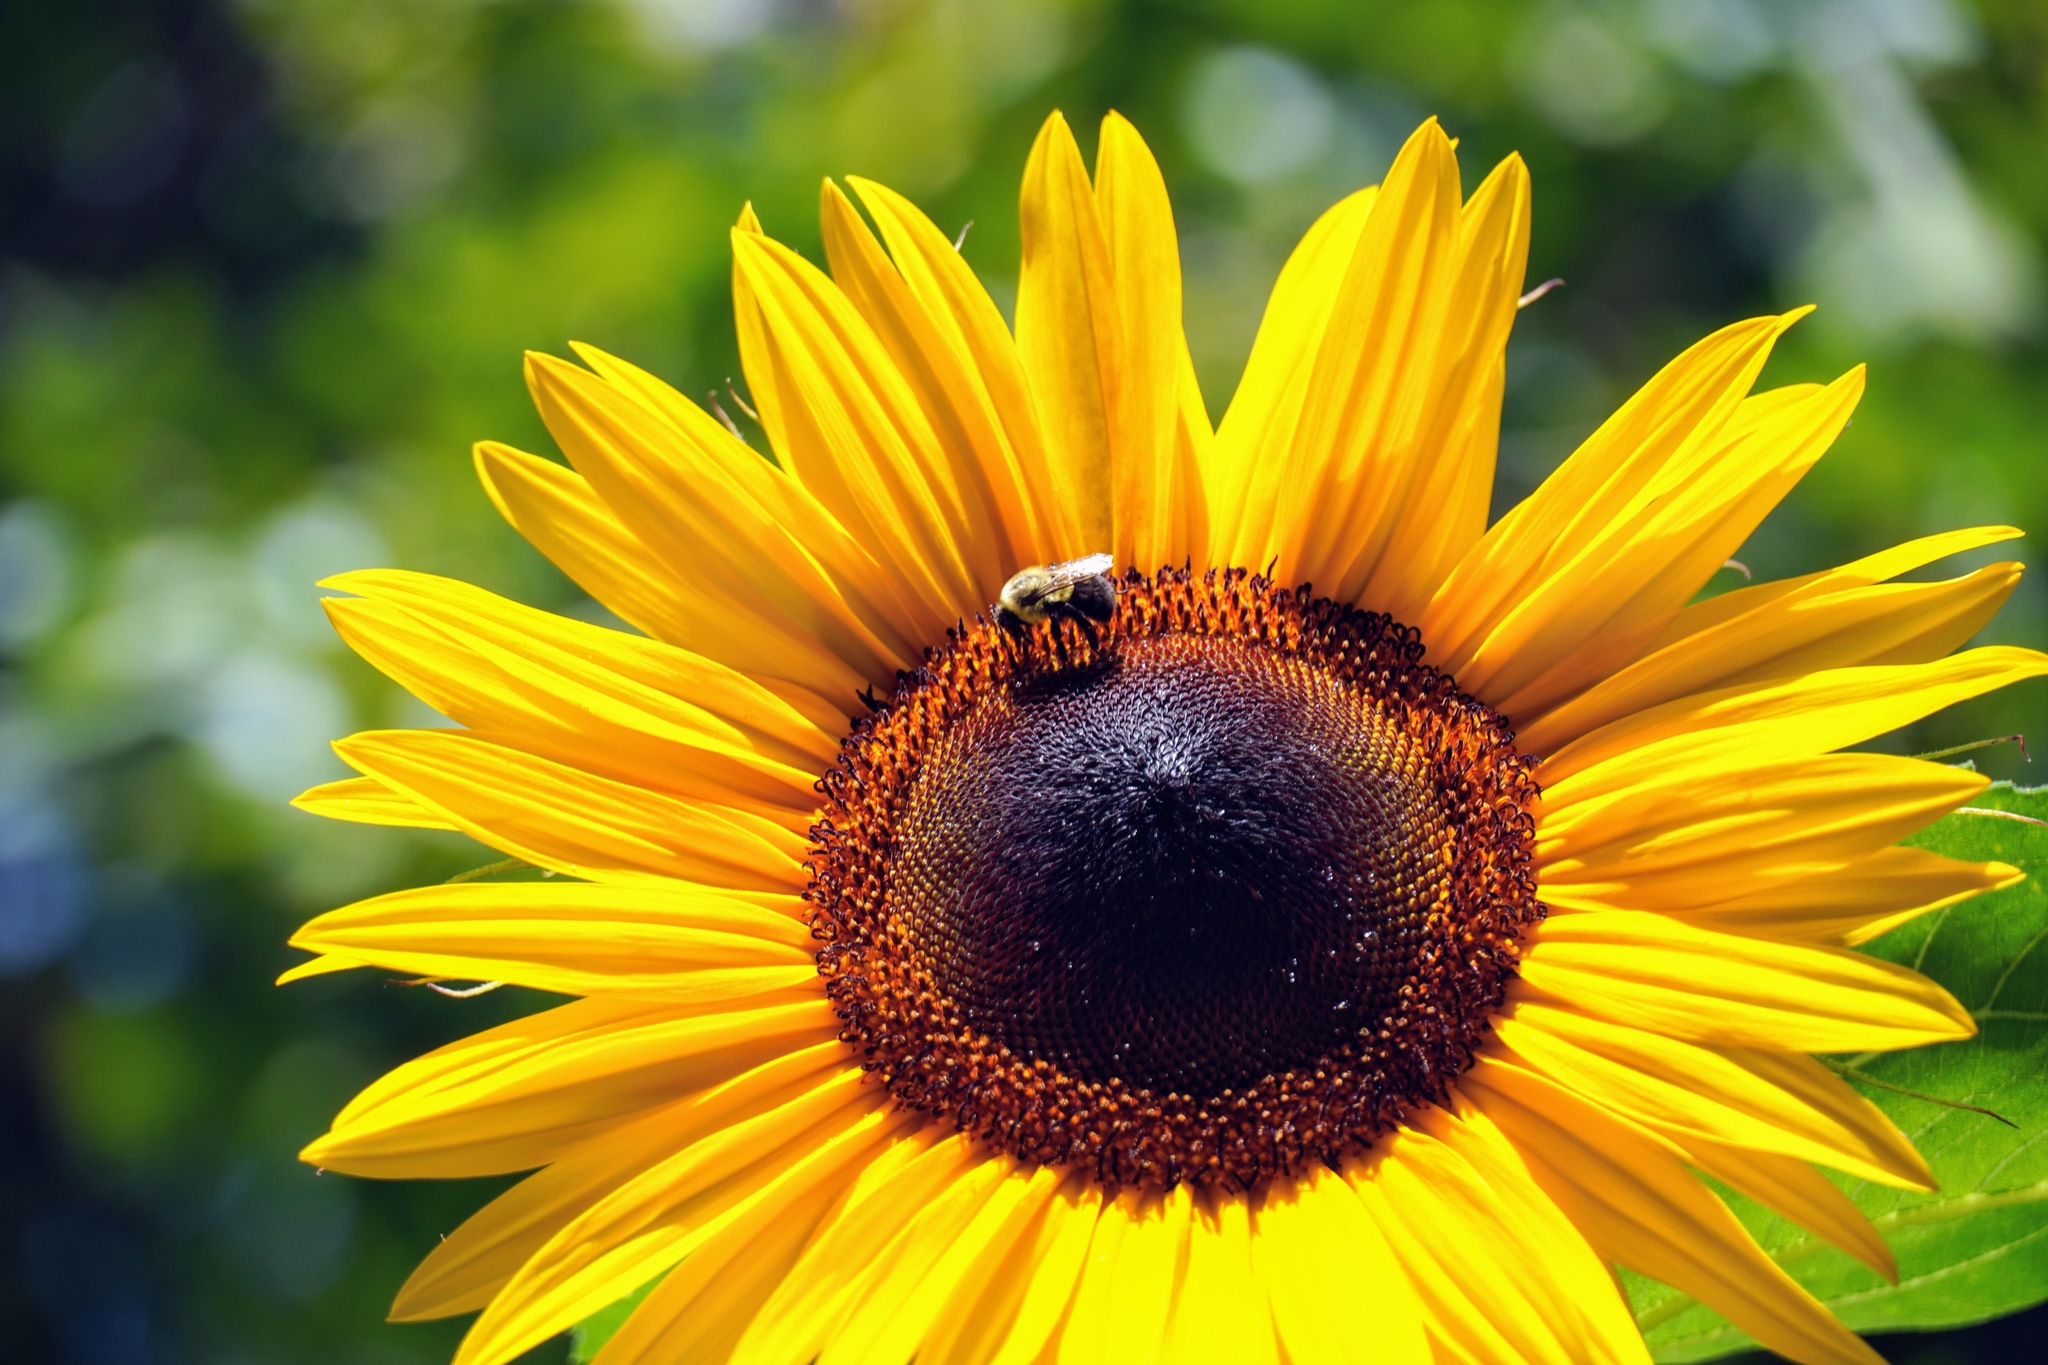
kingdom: Animalia
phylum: Arthropoda
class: Insecta
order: Hymenoptera
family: Apidae
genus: Bombus
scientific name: Bombus impatiens
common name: Common eastern bumble bee
